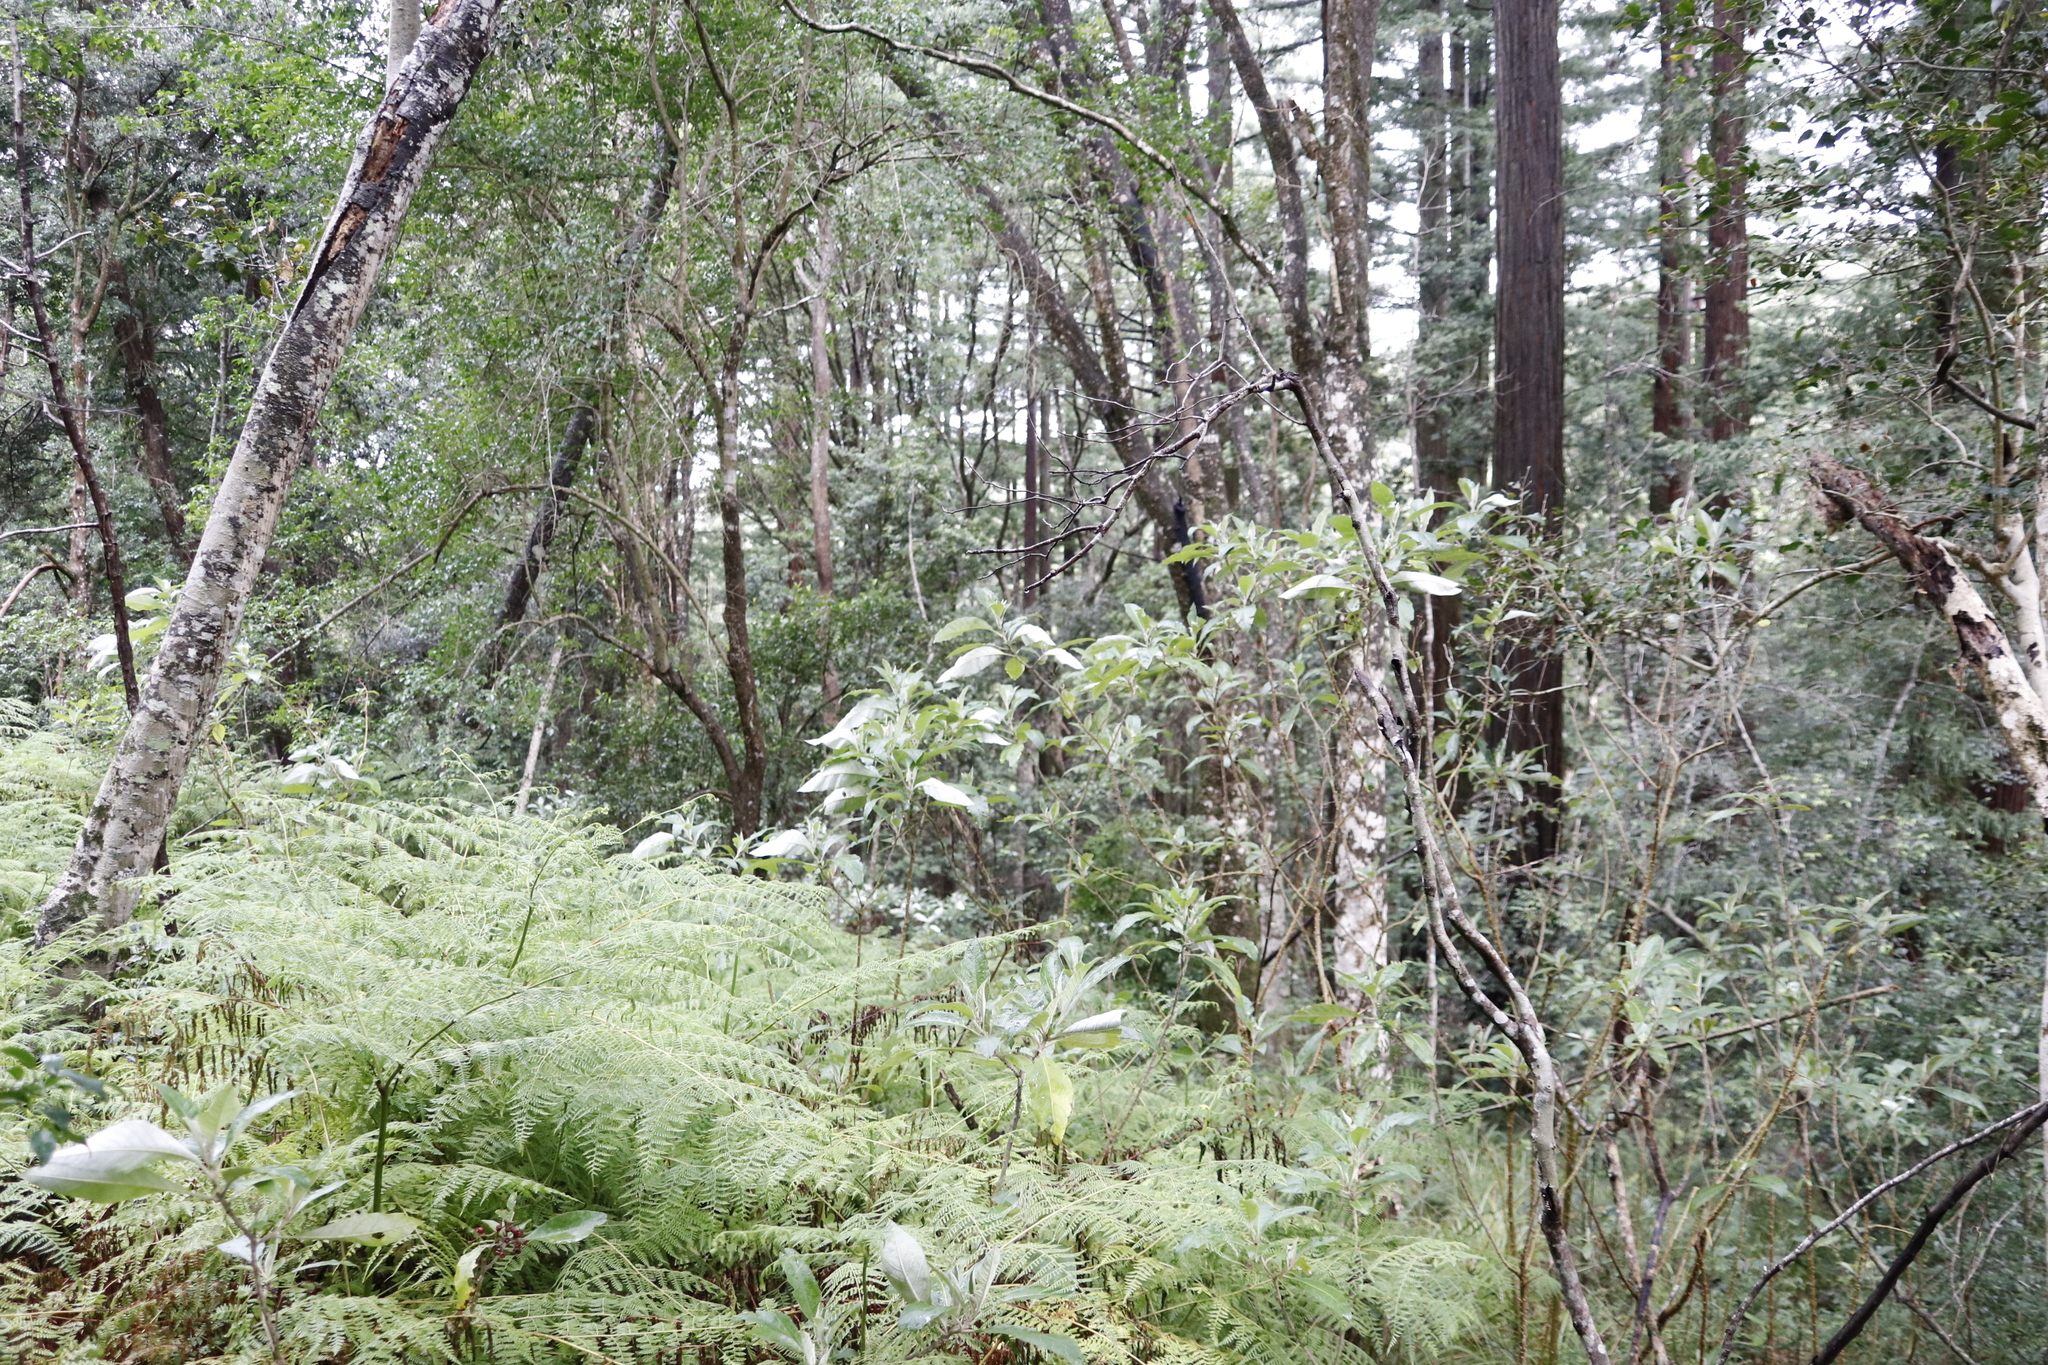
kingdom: Plantae
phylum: Tracheophyta
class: Magnoliopsida
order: Solanales
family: Solanaceae
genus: Solanum
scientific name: Solanum giganteum
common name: Healing-leaf-tree
